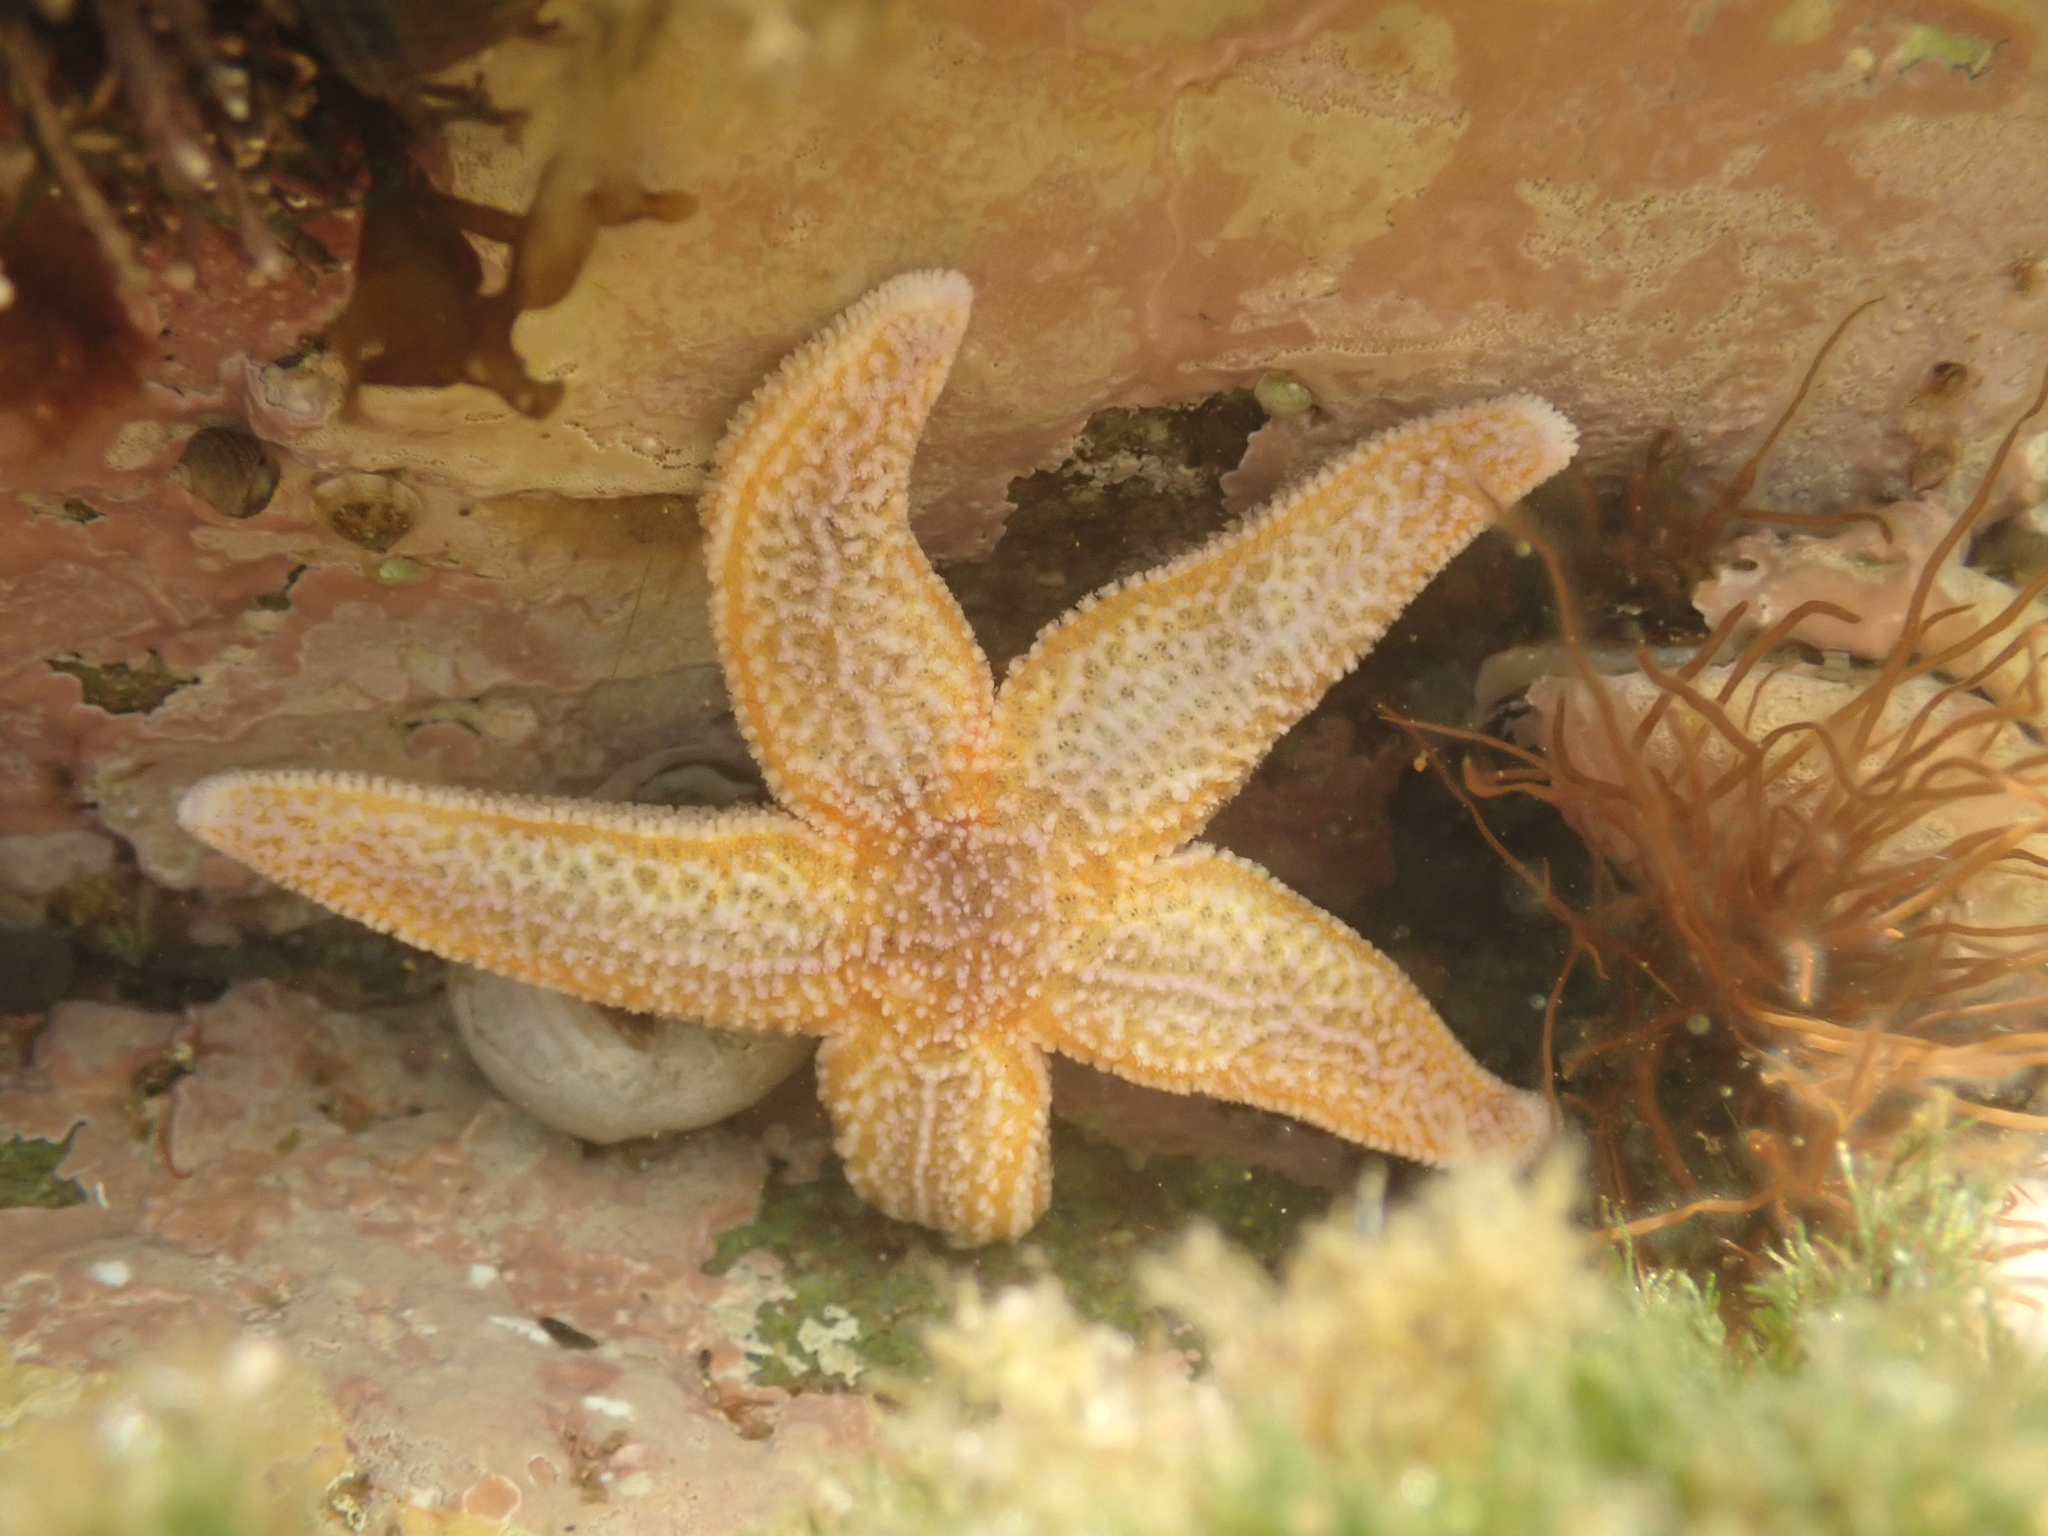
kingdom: Animalia
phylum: Echinodermata
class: Asteroidea
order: Forcipulatida
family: Asteriidae
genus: Asterias
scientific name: Asterias rubens
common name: Common starfish
